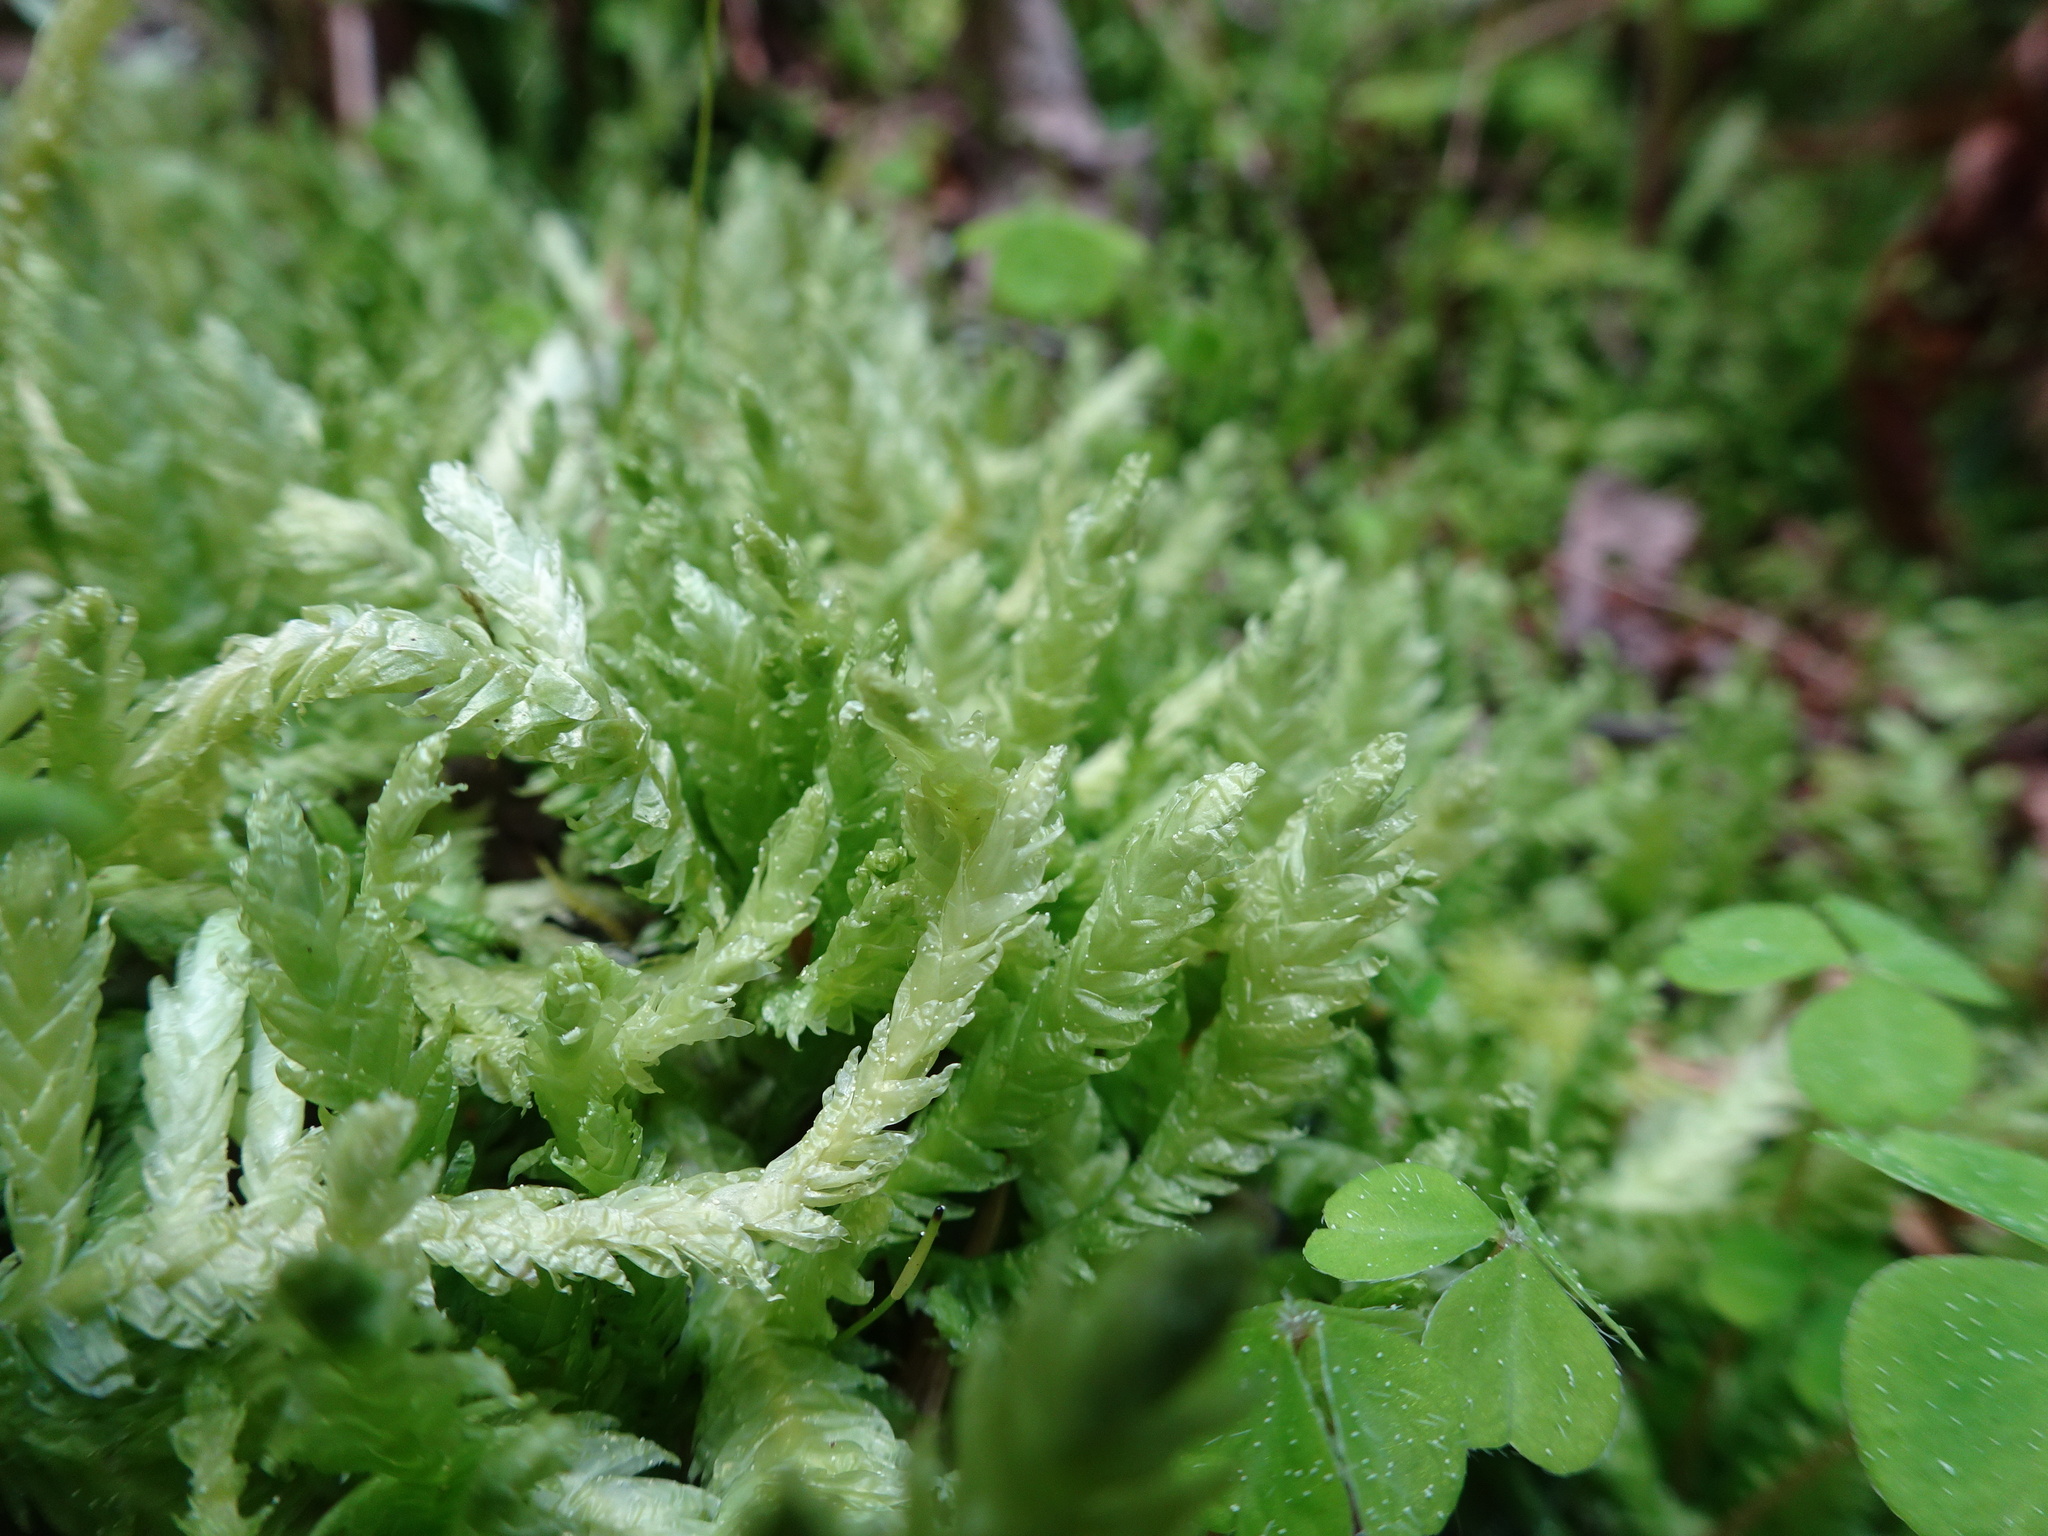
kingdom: Plantae
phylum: Bryophyta
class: Bryopsida
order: Hypnales
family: Plagiotheciaceae
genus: Plagiothecium
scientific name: Plagiothecium undulatum
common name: Waved silk-moss
